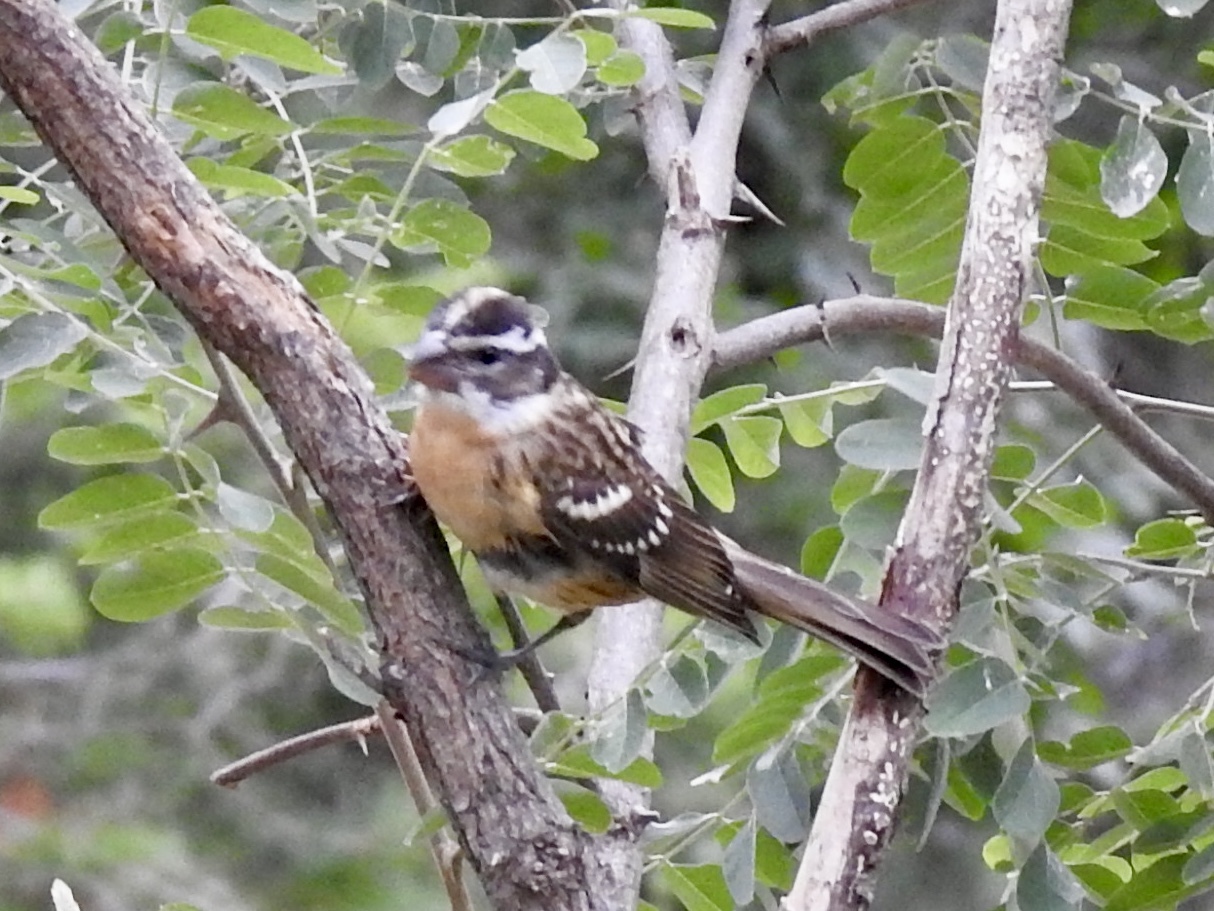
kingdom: Animalia
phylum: Chordata
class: Aves
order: Passeriformes
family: Cardinalidae
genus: Pheucticus
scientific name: Pheucticus melanocephalus
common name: Black-headed grosbeak
